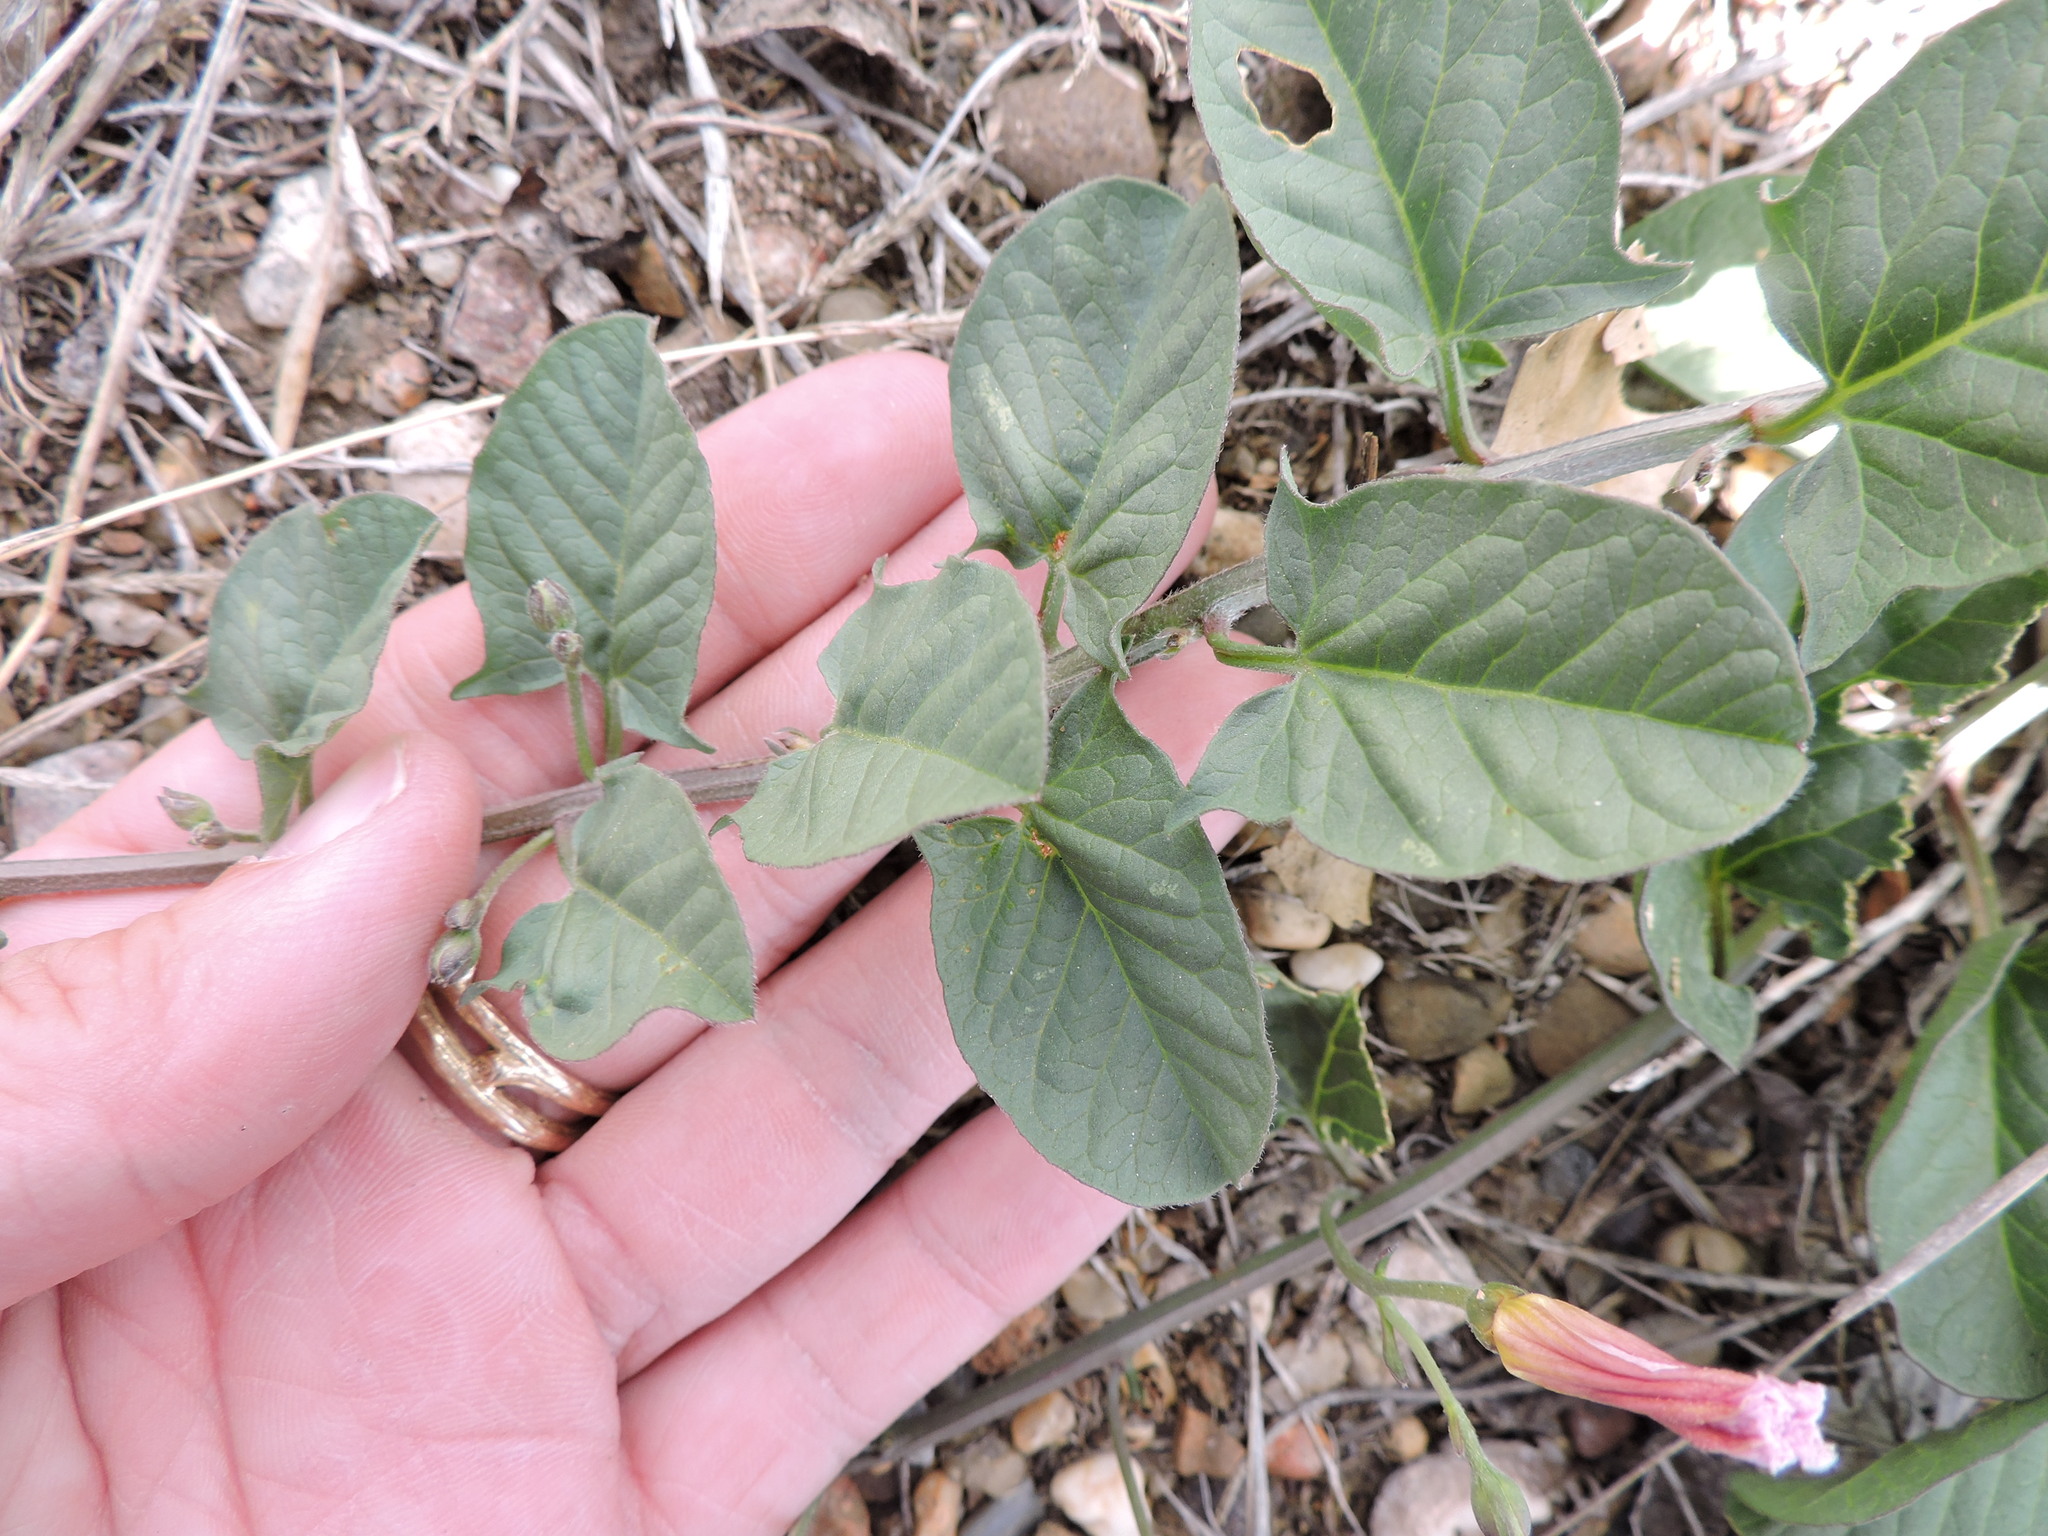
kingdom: Plantae
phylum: Tracheophyta
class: Magnoliopsida
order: Solanales
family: Convolvulaceae
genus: Convolvulus
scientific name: Convolvulus arvensis
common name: Field bindweed
